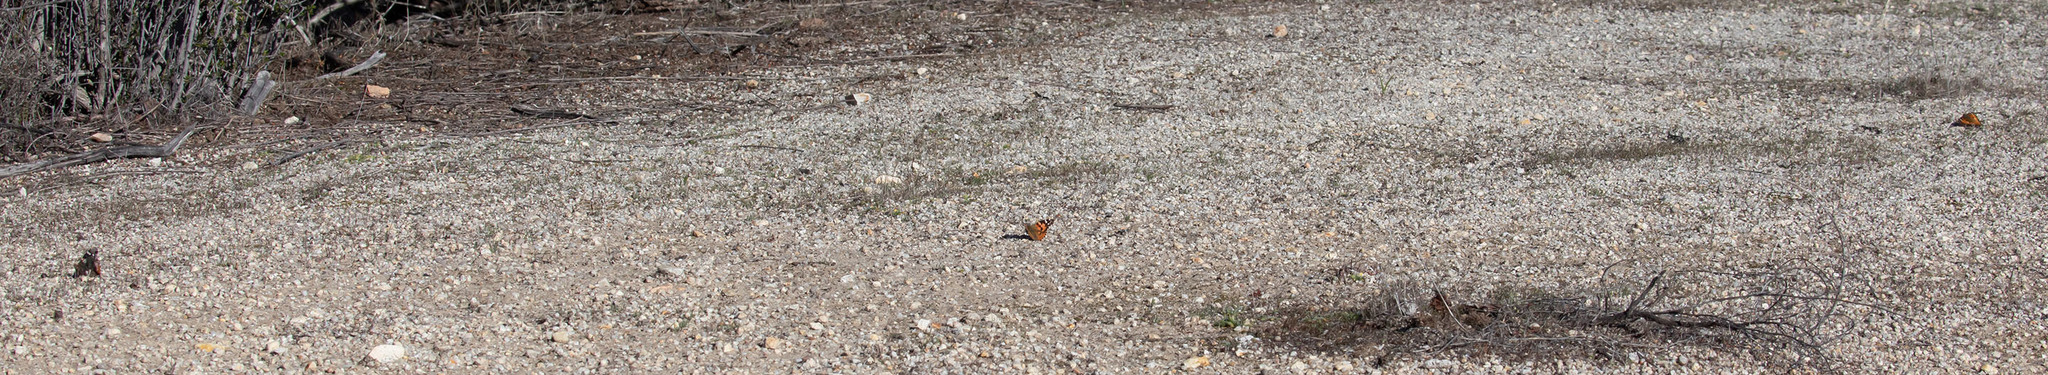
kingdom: Animalia
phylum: Arthropoda
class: Insecta
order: Lepidoptera
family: Nymphalidae
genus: Vanessa
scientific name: Vanessa cardui
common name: Painted lady
